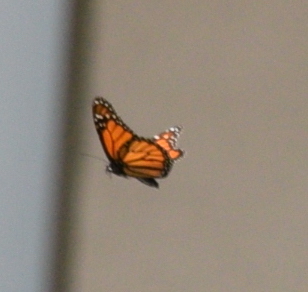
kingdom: Animalia
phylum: Arthropoda
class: Insecta
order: Lepidoptera
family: Nymphalidae
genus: Danaus
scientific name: Danaus plexippus
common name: Monarch
